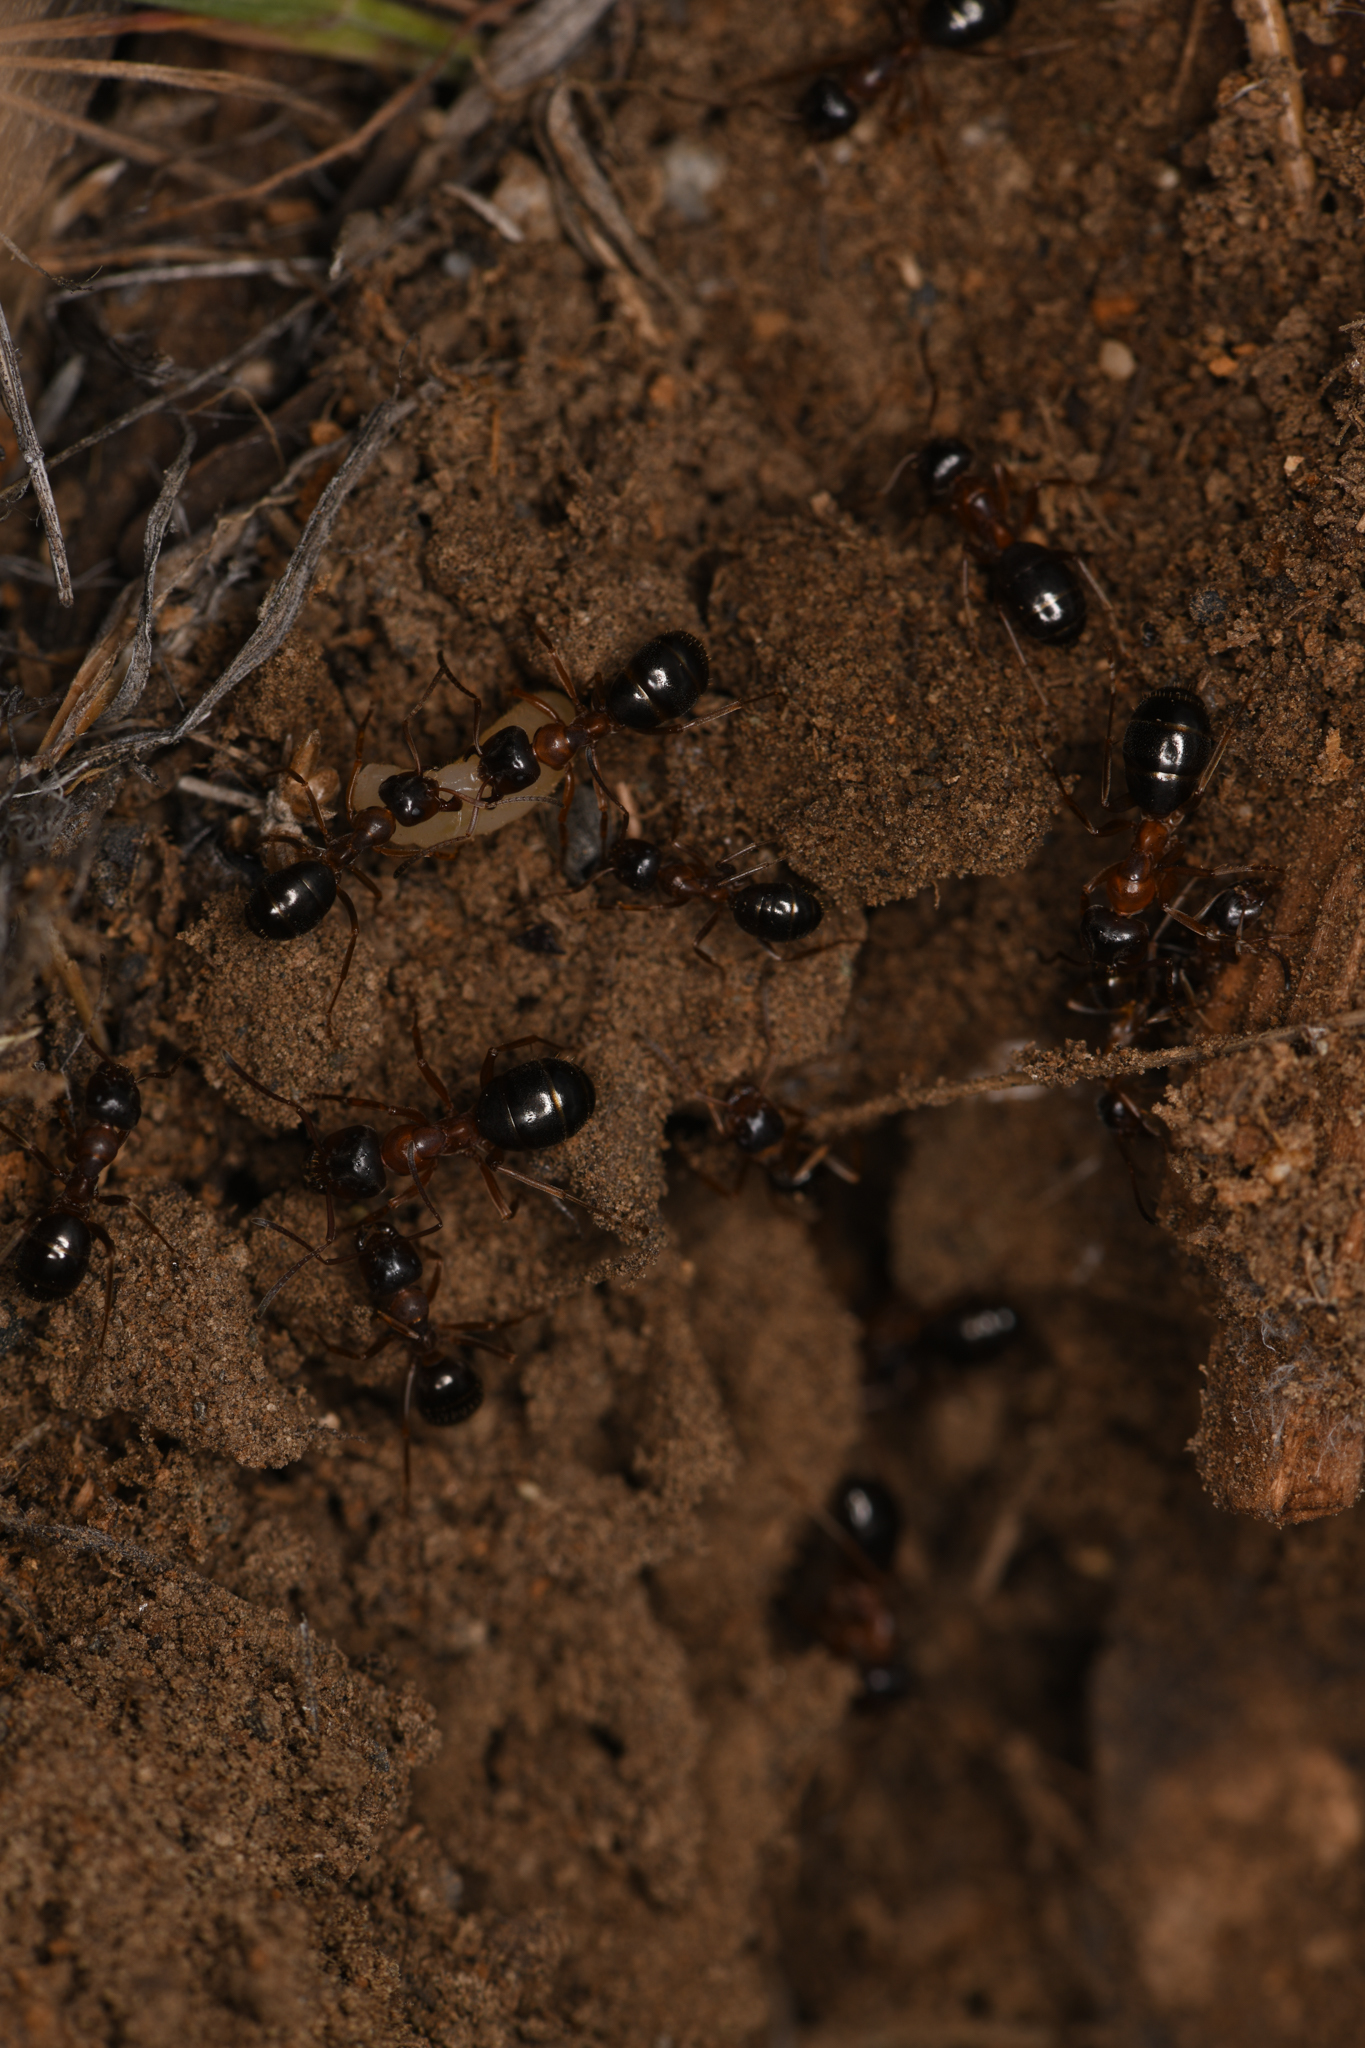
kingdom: Animalia
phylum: Arthropoda
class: Insecta
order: Hymenoptera
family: Formicidae
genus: Formica
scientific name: Formica subpolita
